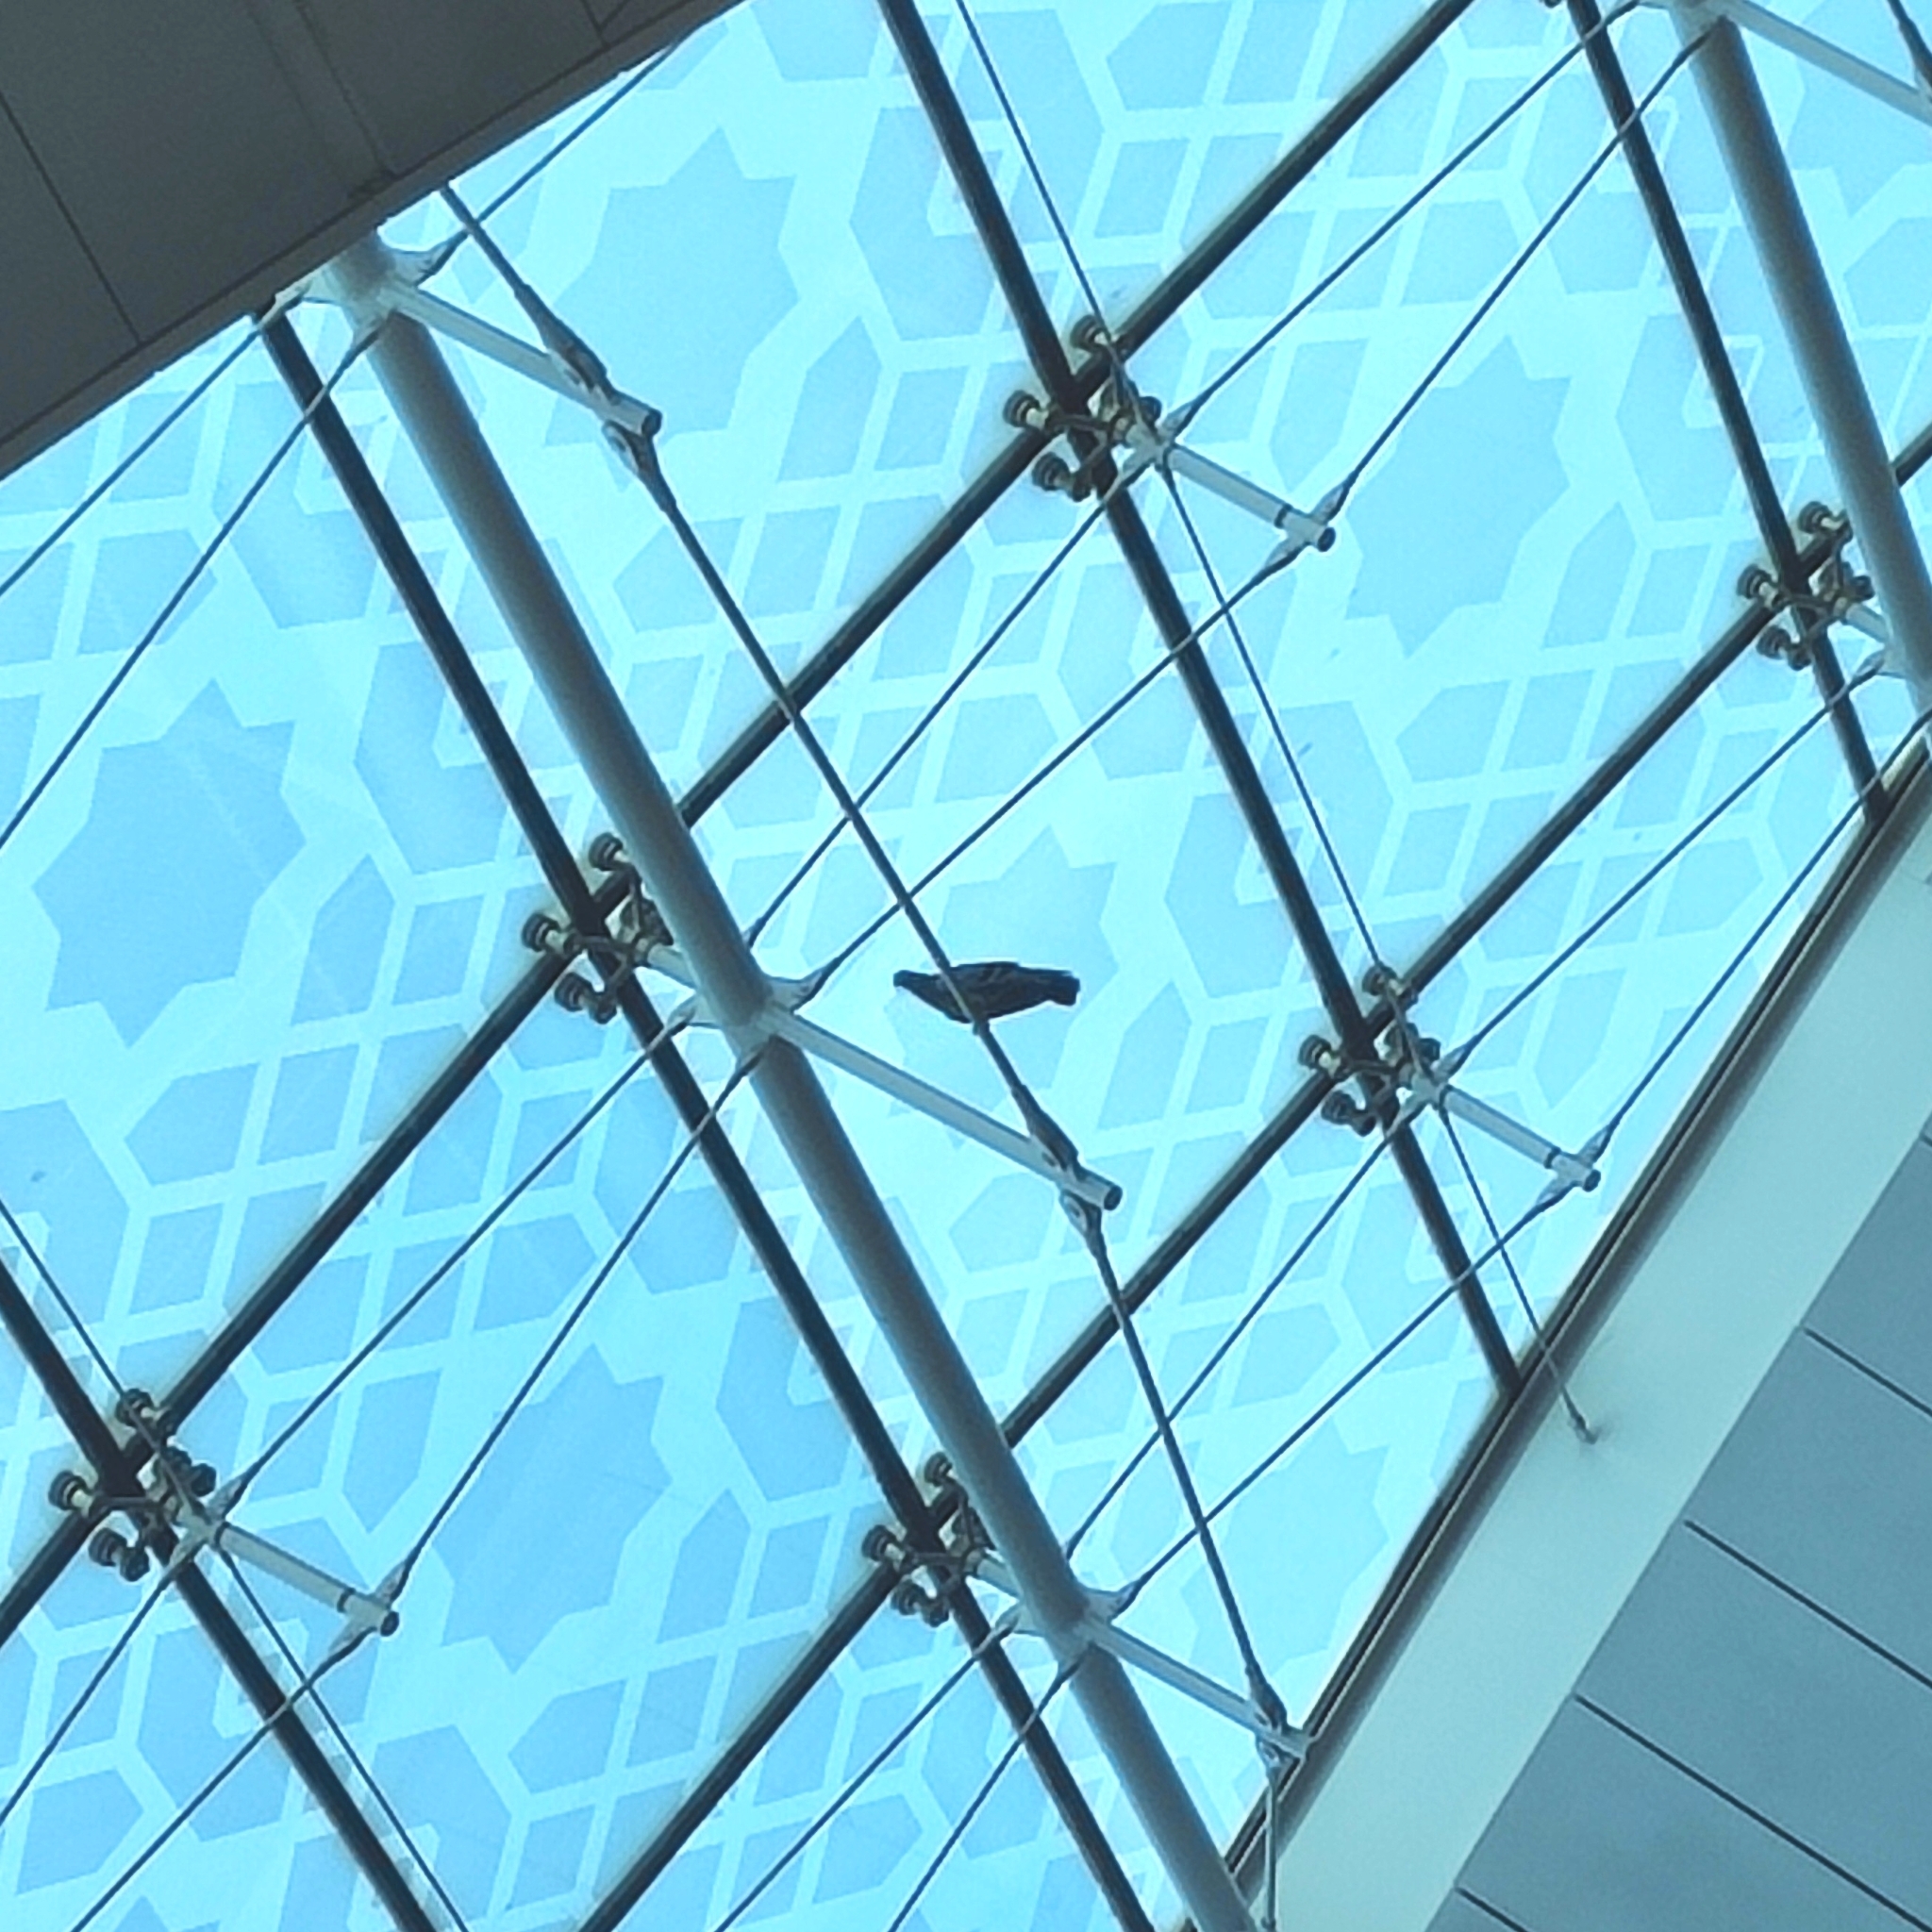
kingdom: Animalia
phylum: Chordata
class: Aves
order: Columbiformes
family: Columbidae
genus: Columba
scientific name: Columba livia
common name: Rock pigeon
